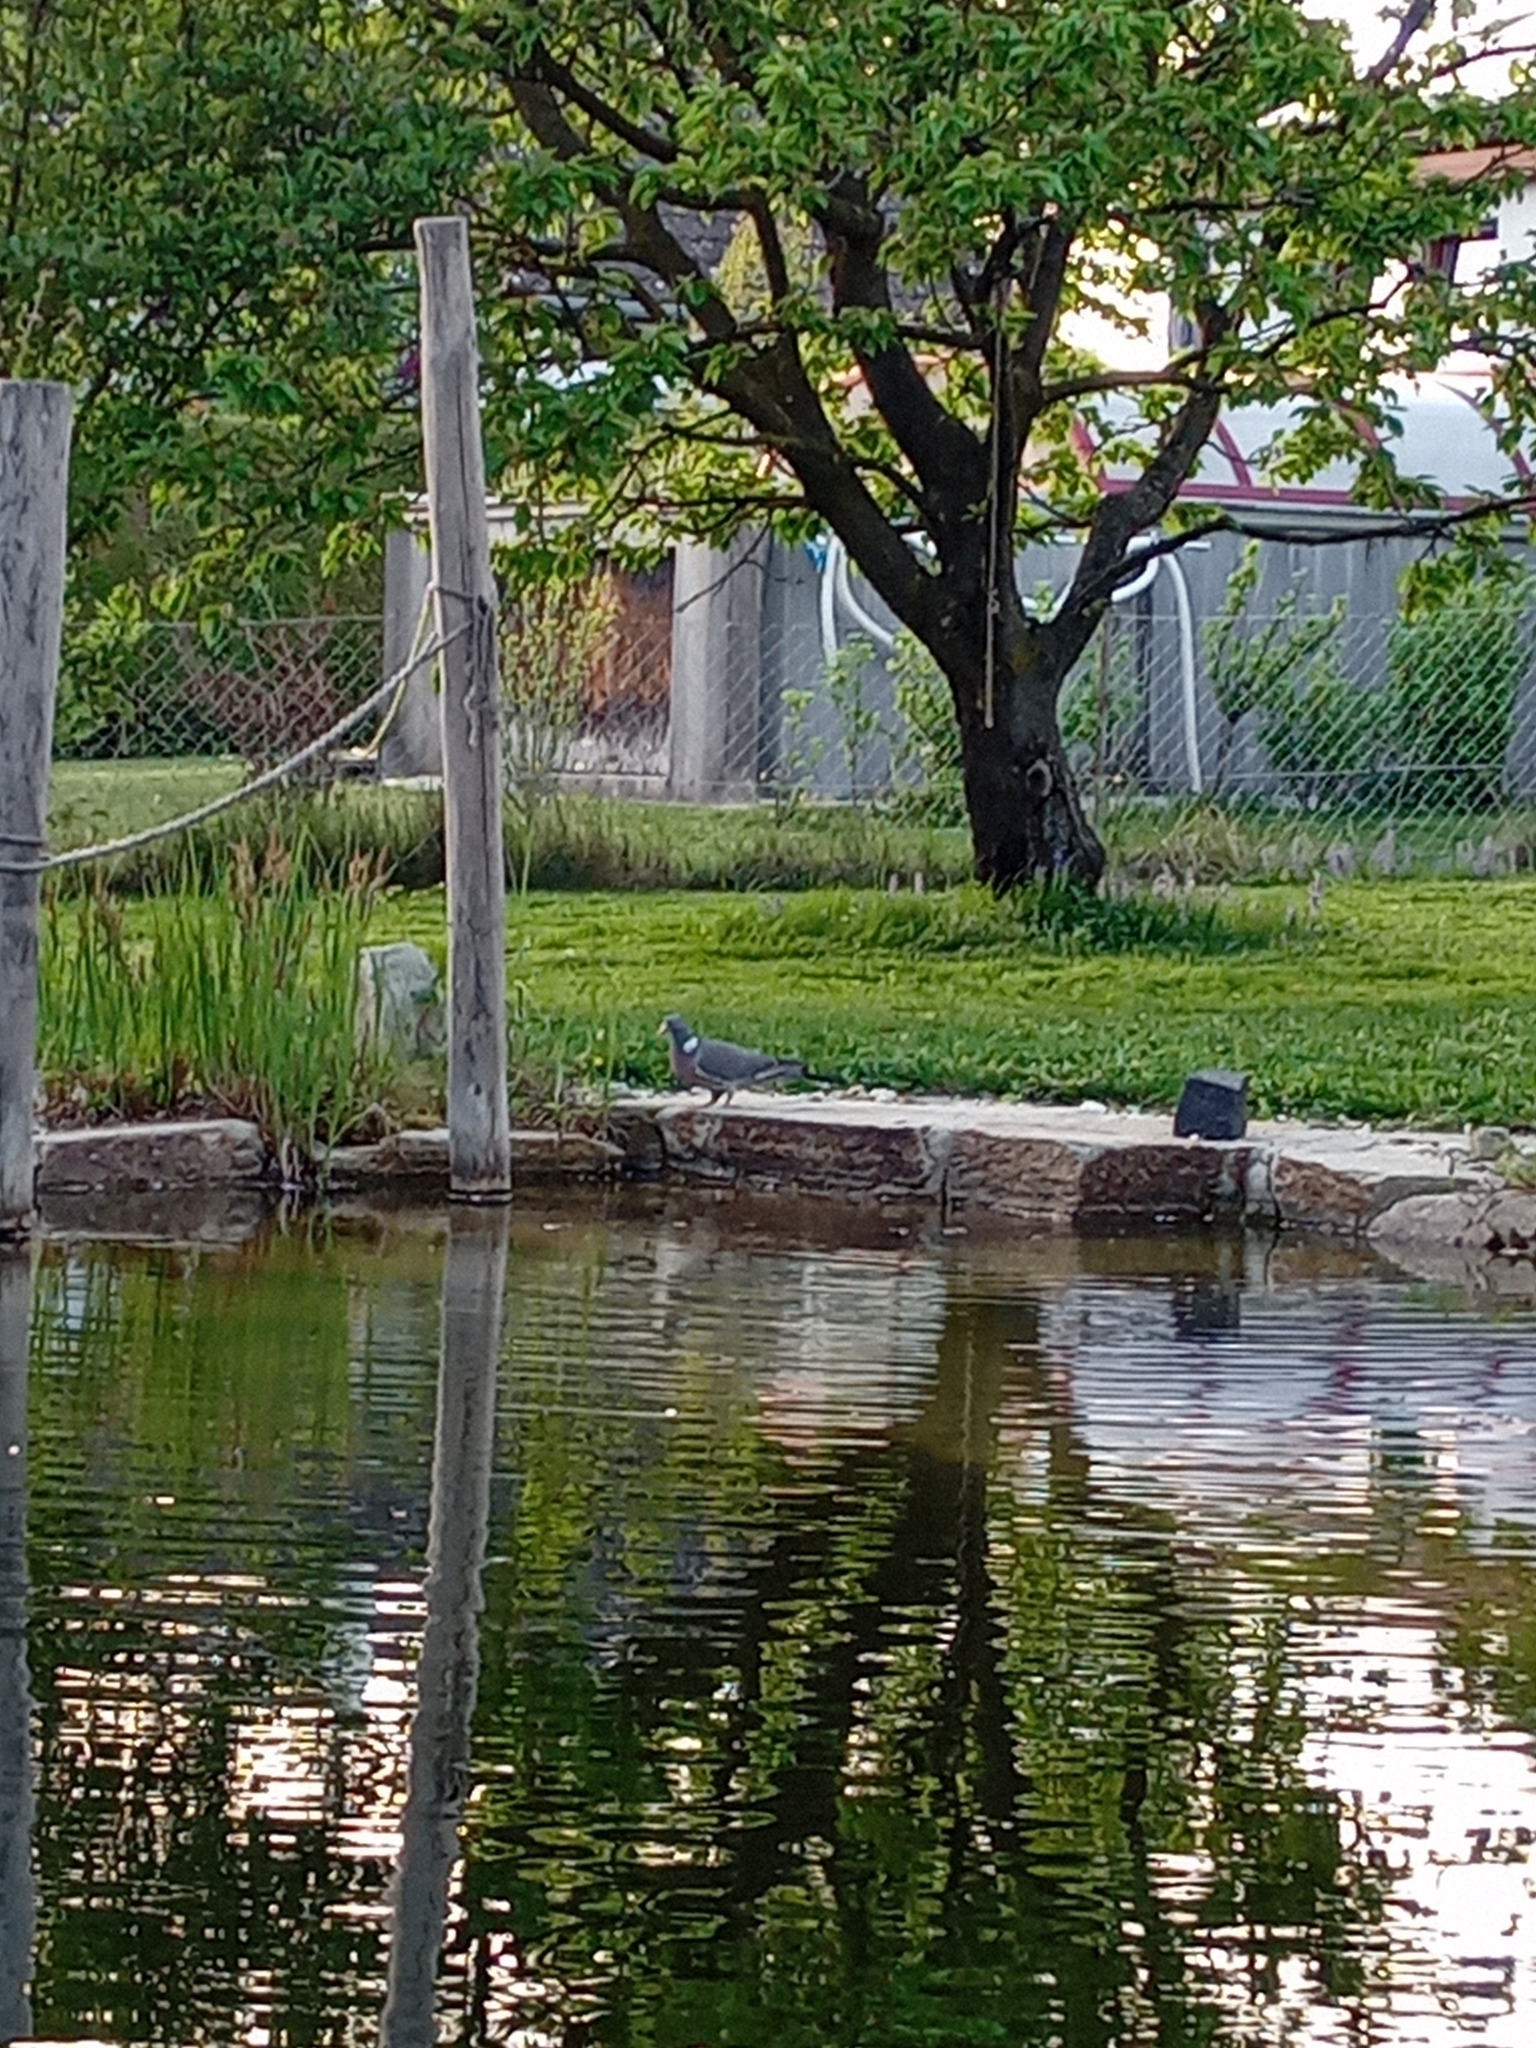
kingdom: Animalia
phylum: Chordata
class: Aves
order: Columbiformes
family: Columbidae
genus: Columba
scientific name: Columba palumbus
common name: Common wood pigeon
